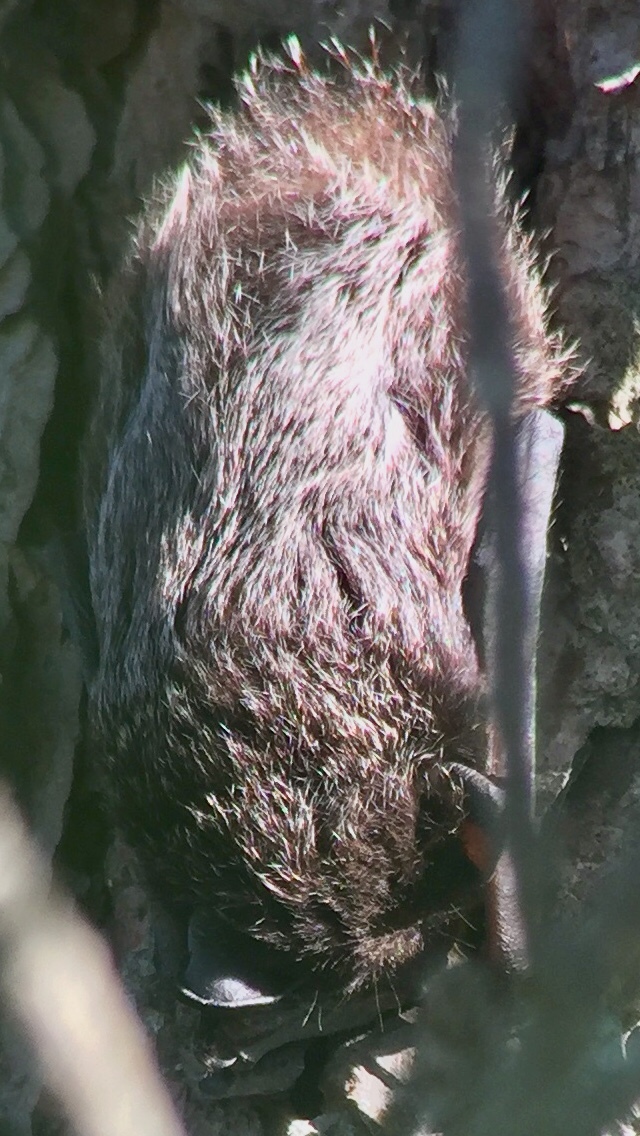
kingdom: Animalia
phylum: Chordata
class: Mammalia
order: Chiroptera
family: Vespertilionidae
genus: Lasionycteris
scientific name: Lasionycteris noctivagans
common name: Silver-haired bat
